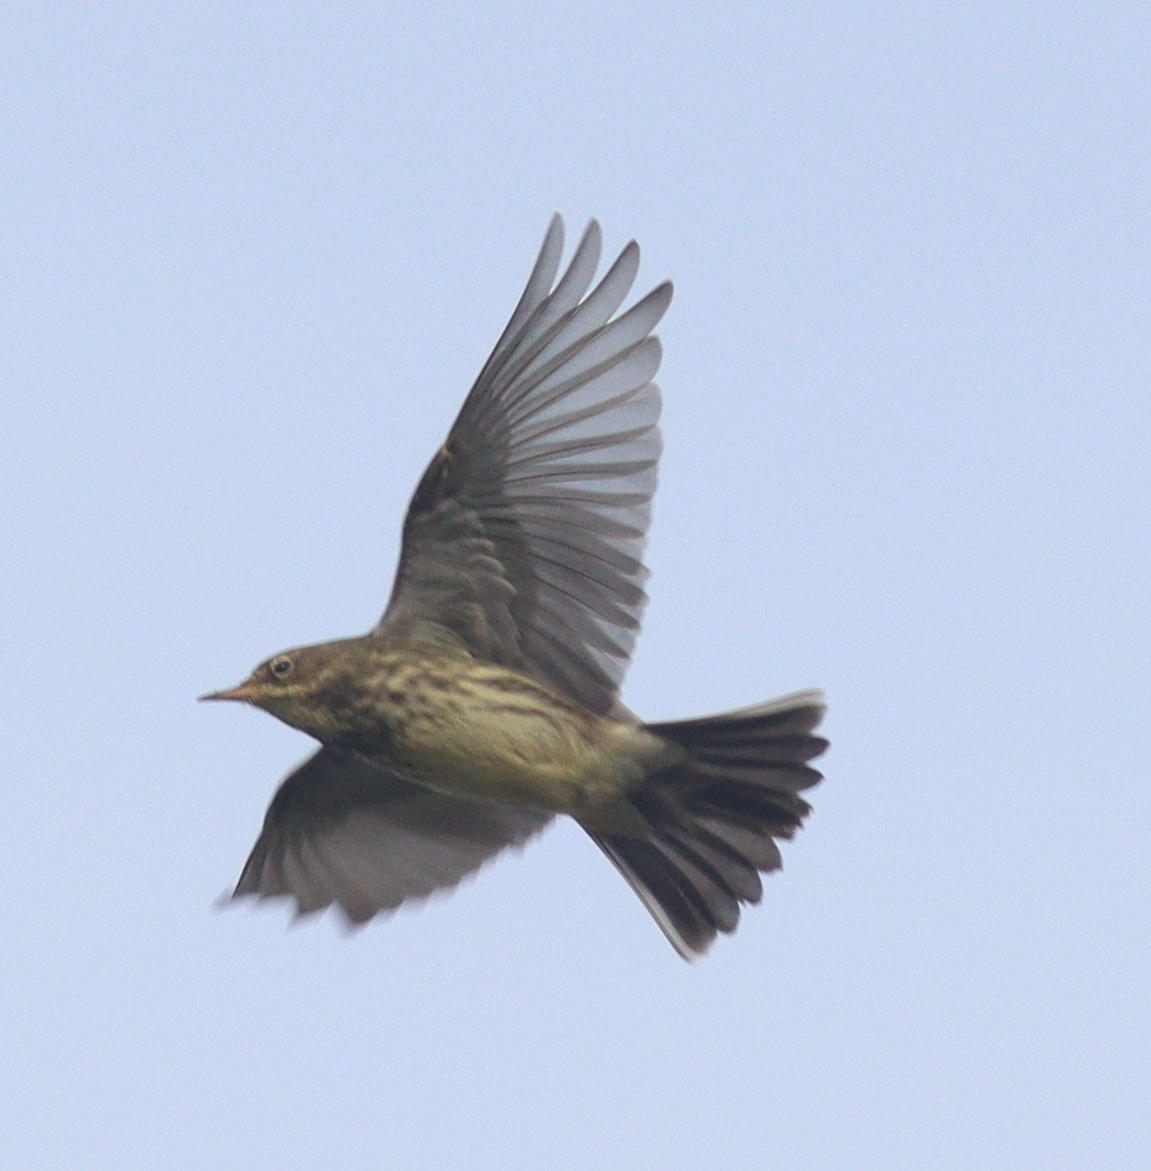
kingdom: Animalia
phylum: Chordata
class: Aves
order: Passeriformes
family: Motacillidae
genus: Anthus
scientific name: Anthus pratensis
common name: Meadow pipit
